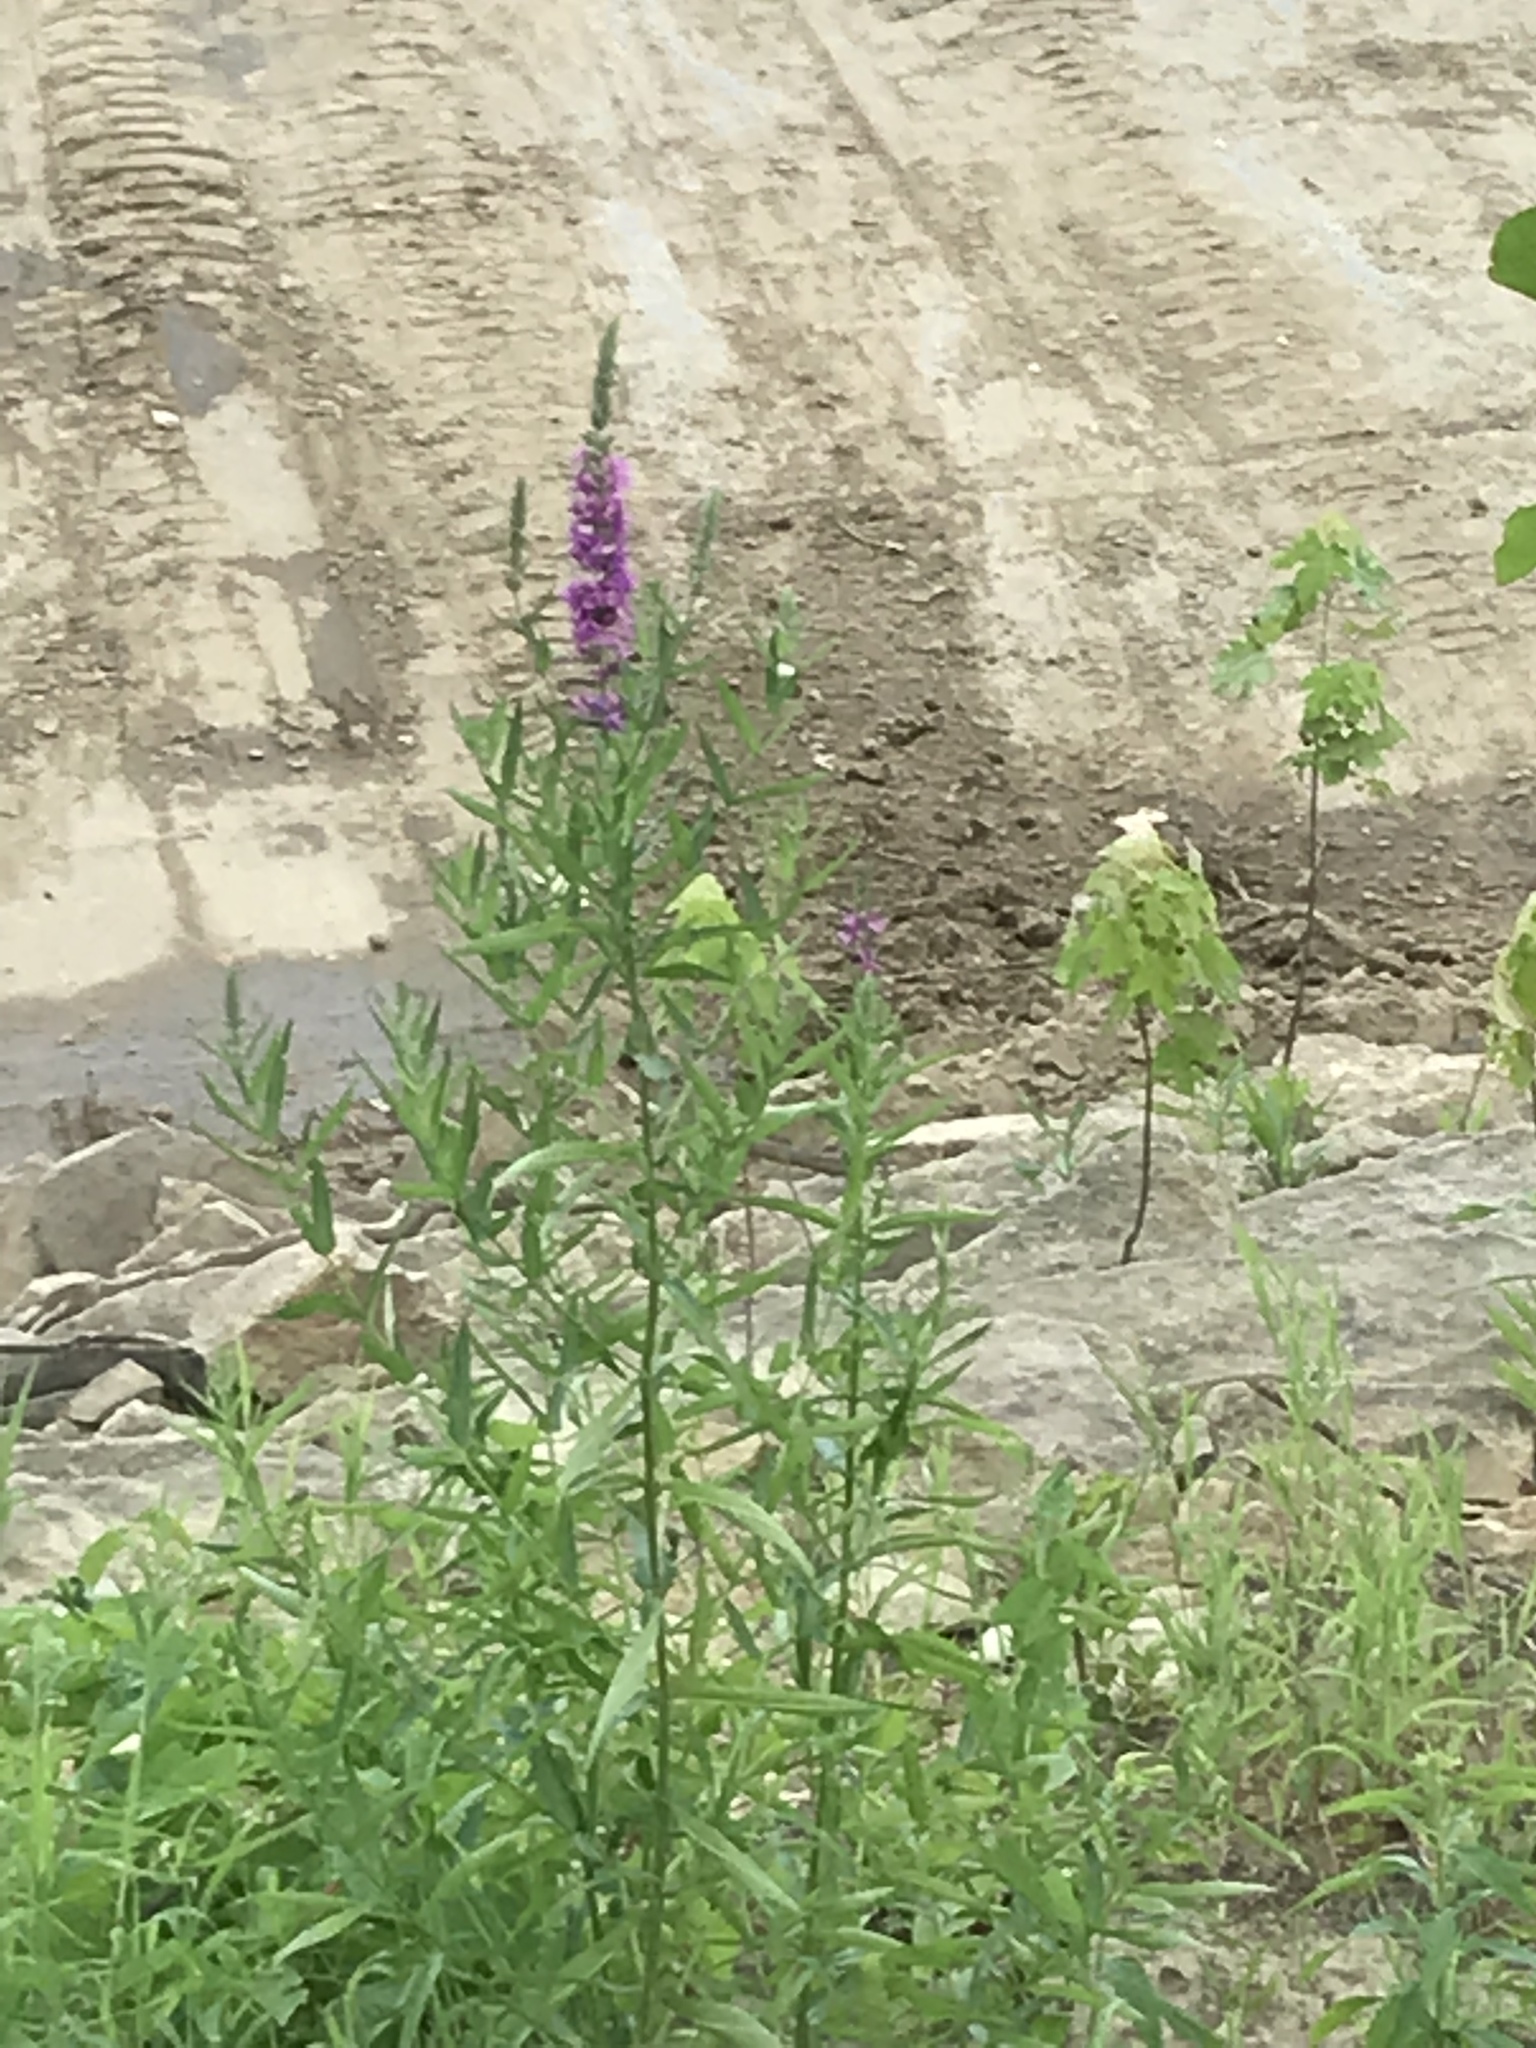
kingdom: Plantae
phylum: Tracheophyta
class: Magnoliopsida
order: Myrtales
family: Lythraceae
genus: Lythrum
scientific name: Lythrum salicaria
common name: Purple loosestrife
